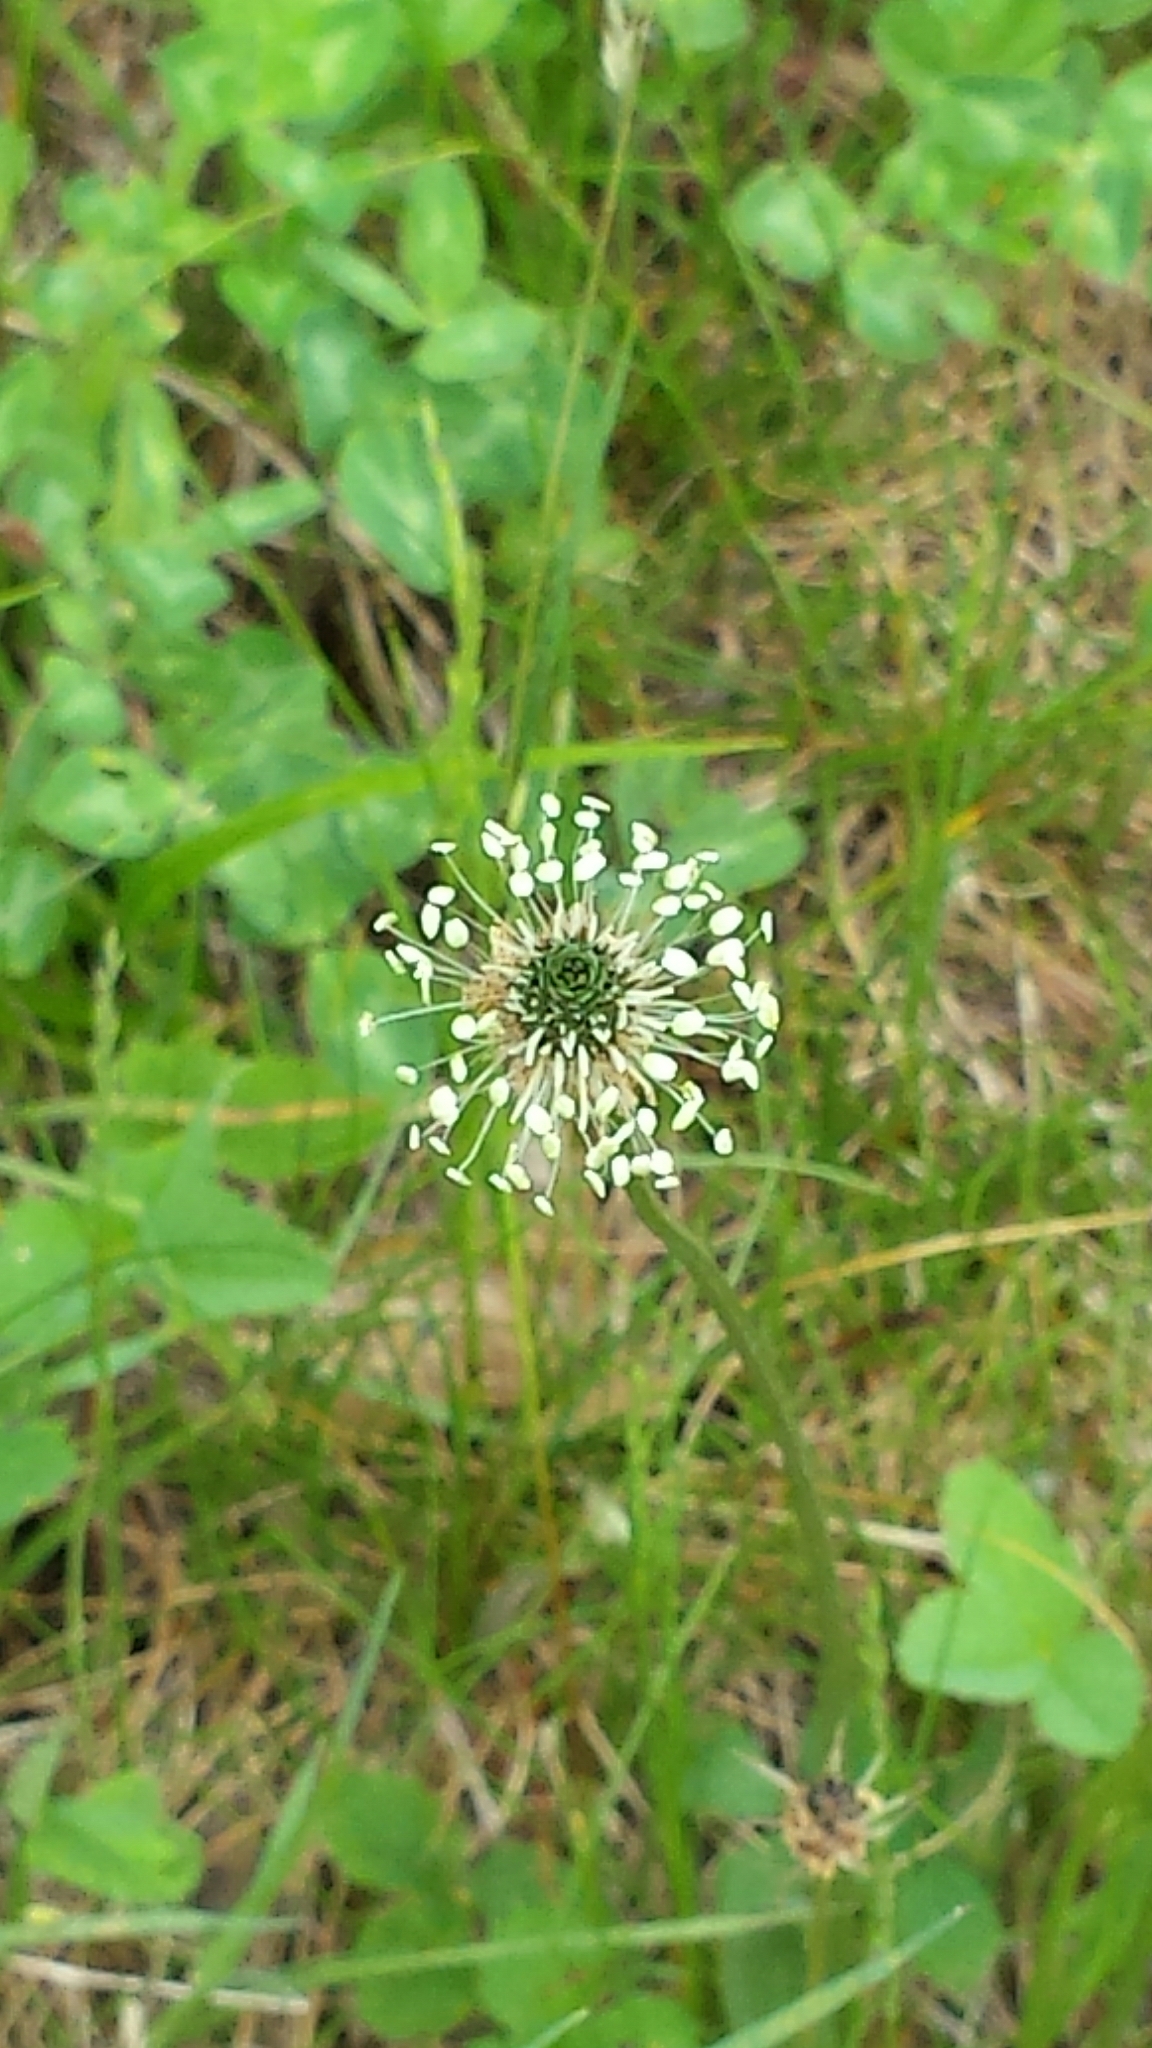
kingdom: Plantae
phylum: Tracheophyta
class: Magnoliopsida
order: Lamiales
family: Plantaginaceae
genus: Plantago
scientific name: Plantago lanceolata
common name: Ribwort plantain
